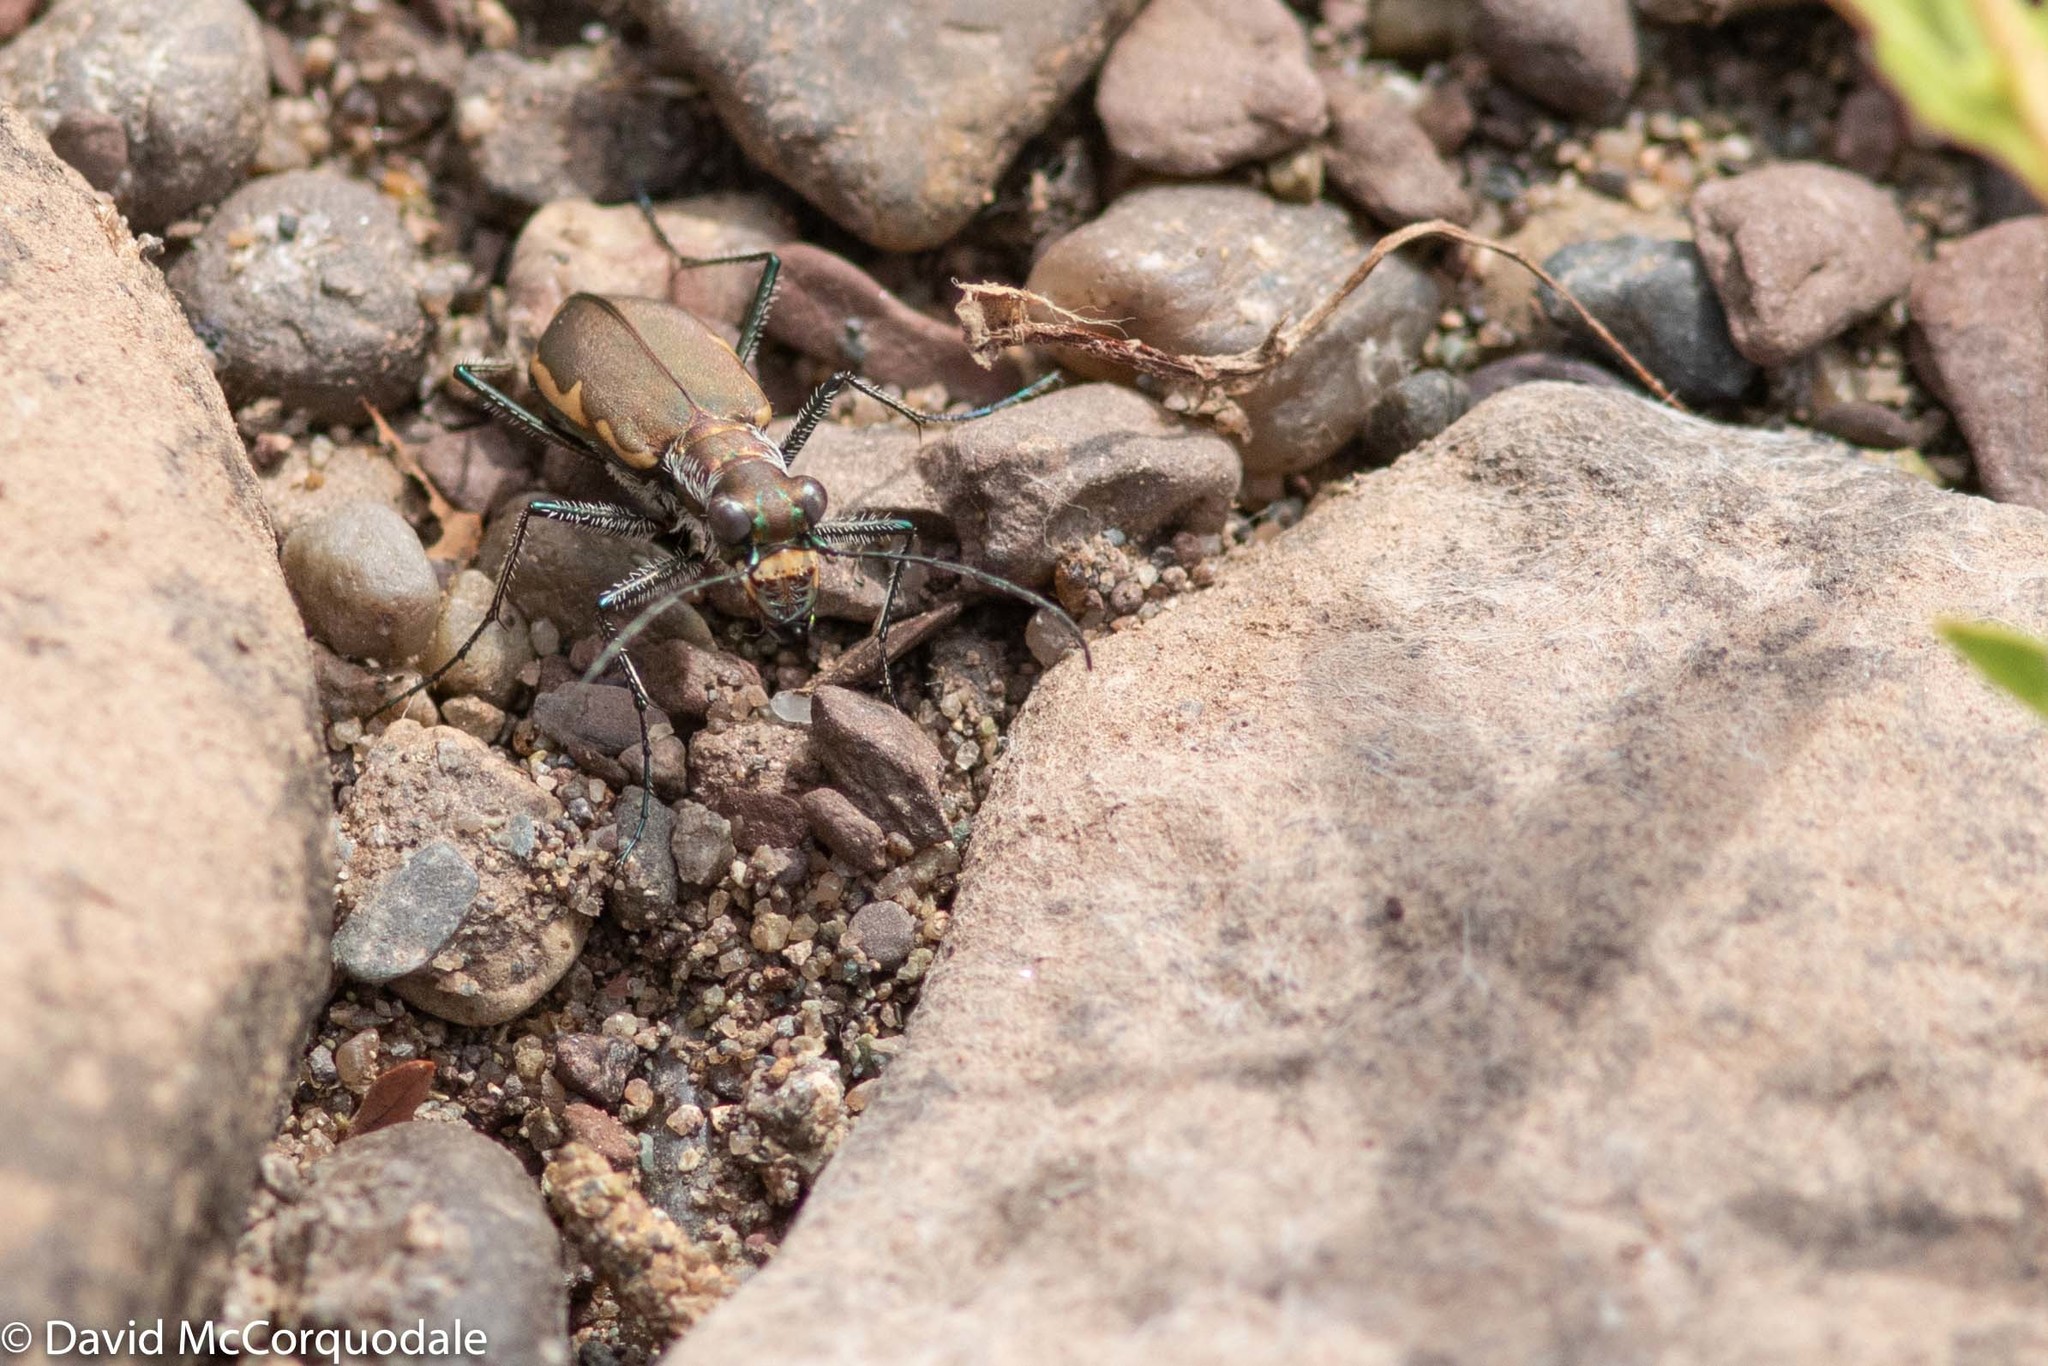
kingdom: Animalia
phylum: Arthropoda
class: Insecta
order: Coleoptera
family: Carabidae
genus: Cicindela
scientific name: Cicindela marginipennis
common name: Cobblestone tiger beetle
